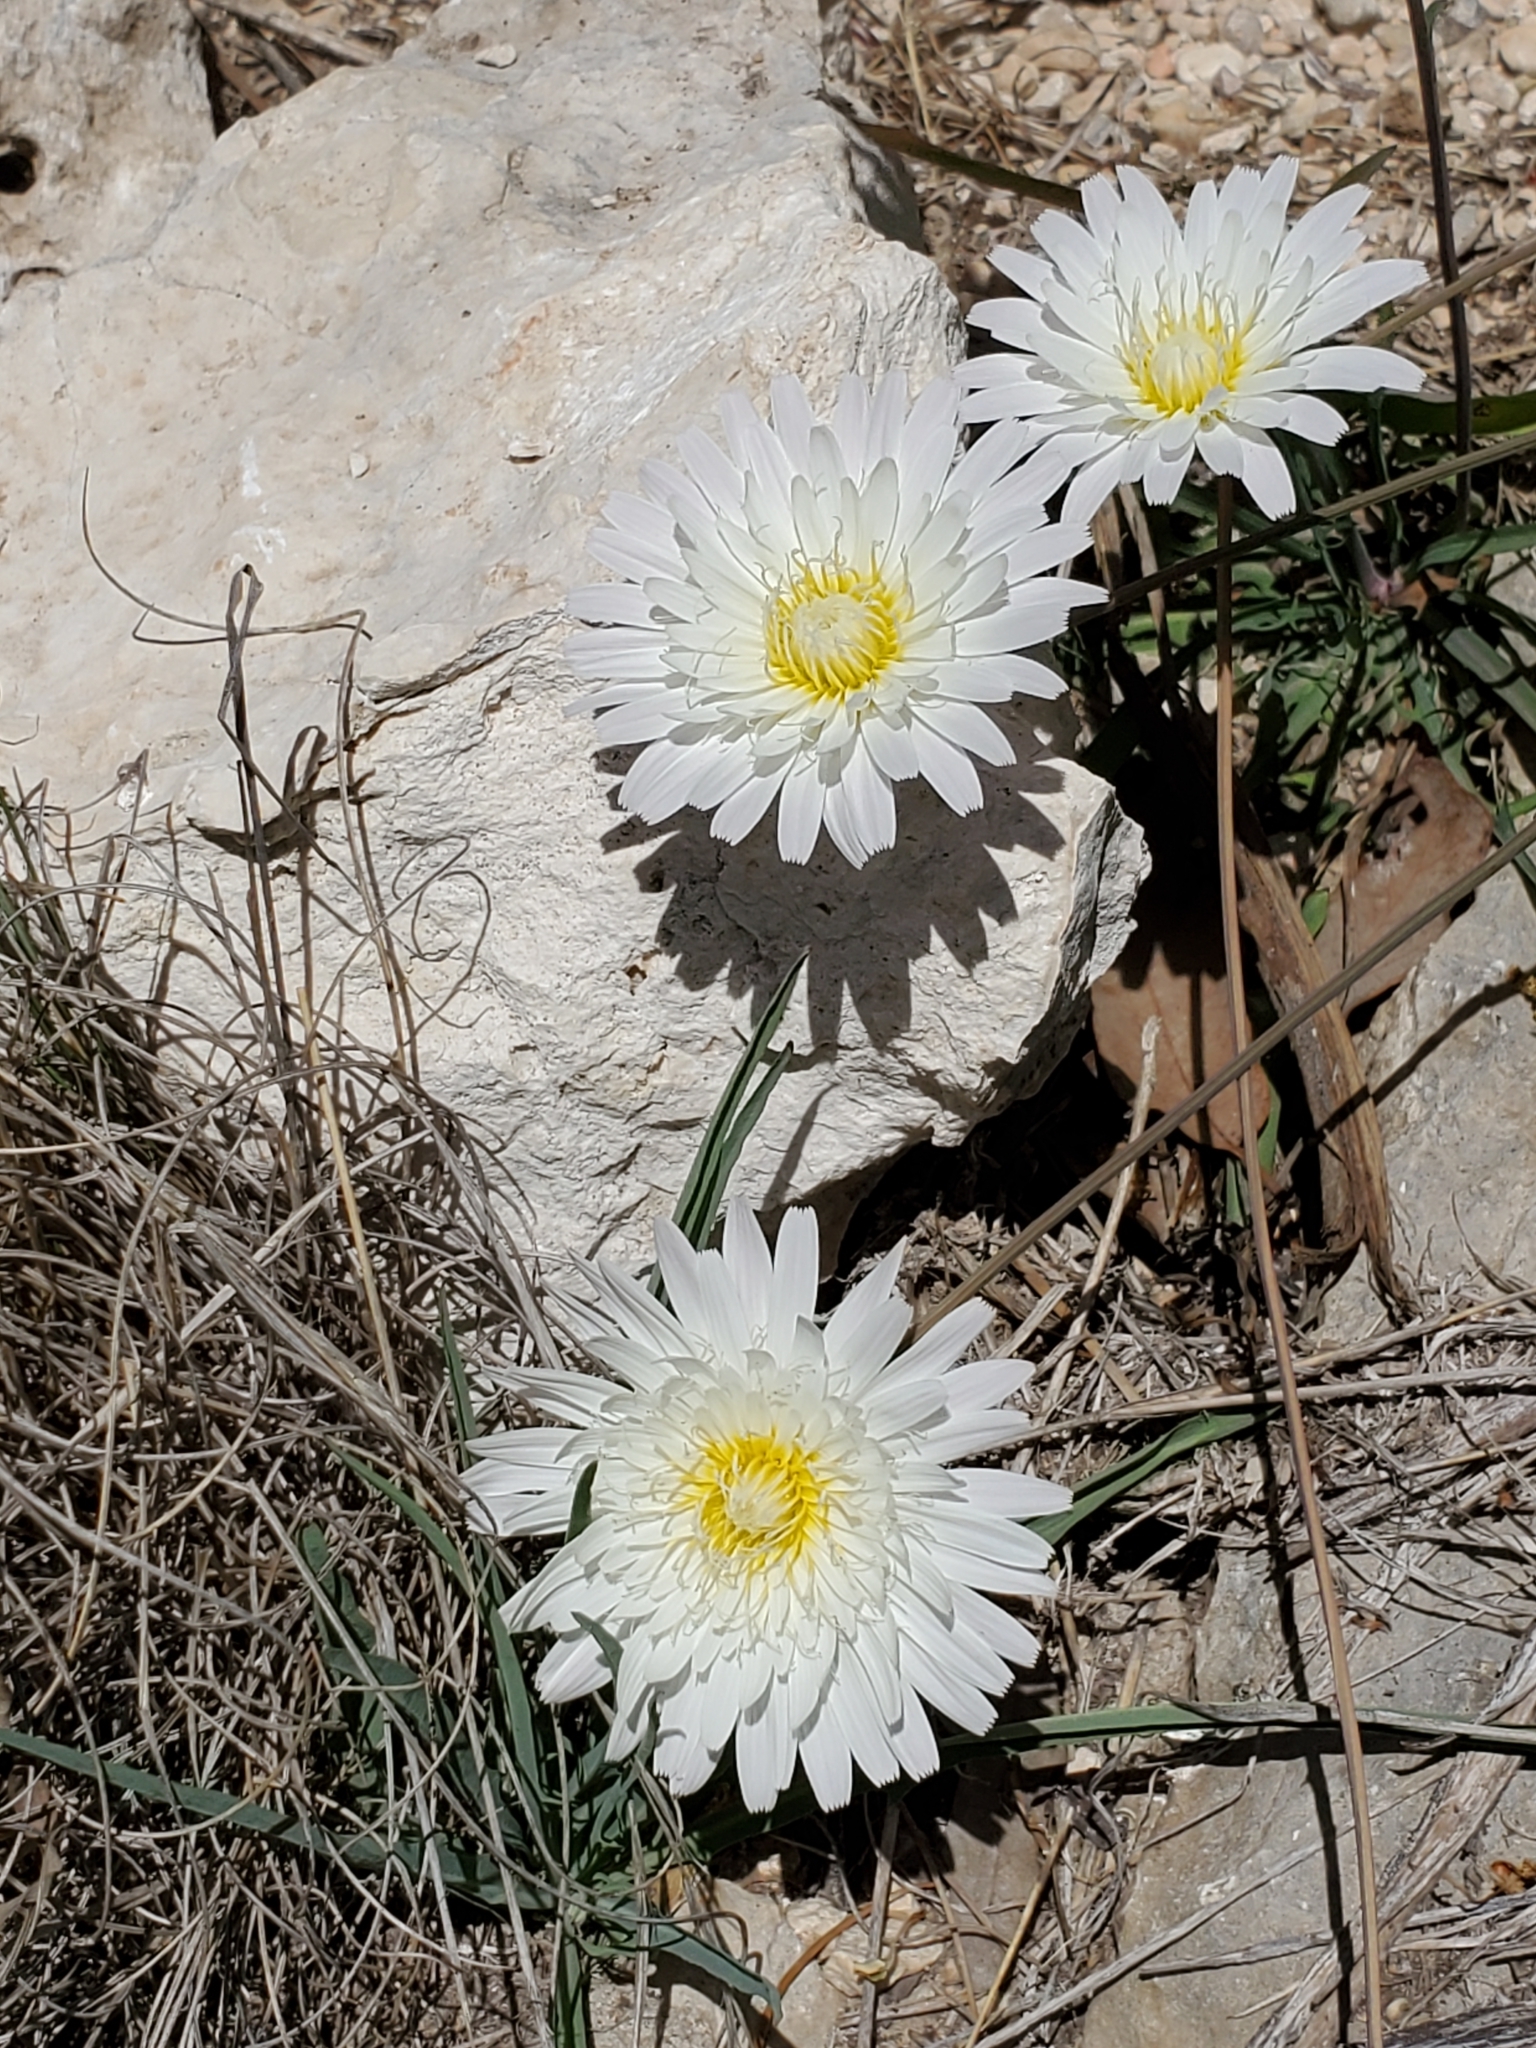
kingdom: Plantae
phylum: Tracheophyta
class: Magnoliopsida
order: Asterales
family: Asteraceae
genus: Pinaropappus
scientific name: Pinaropappus roseus
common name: Rock-lettuce
